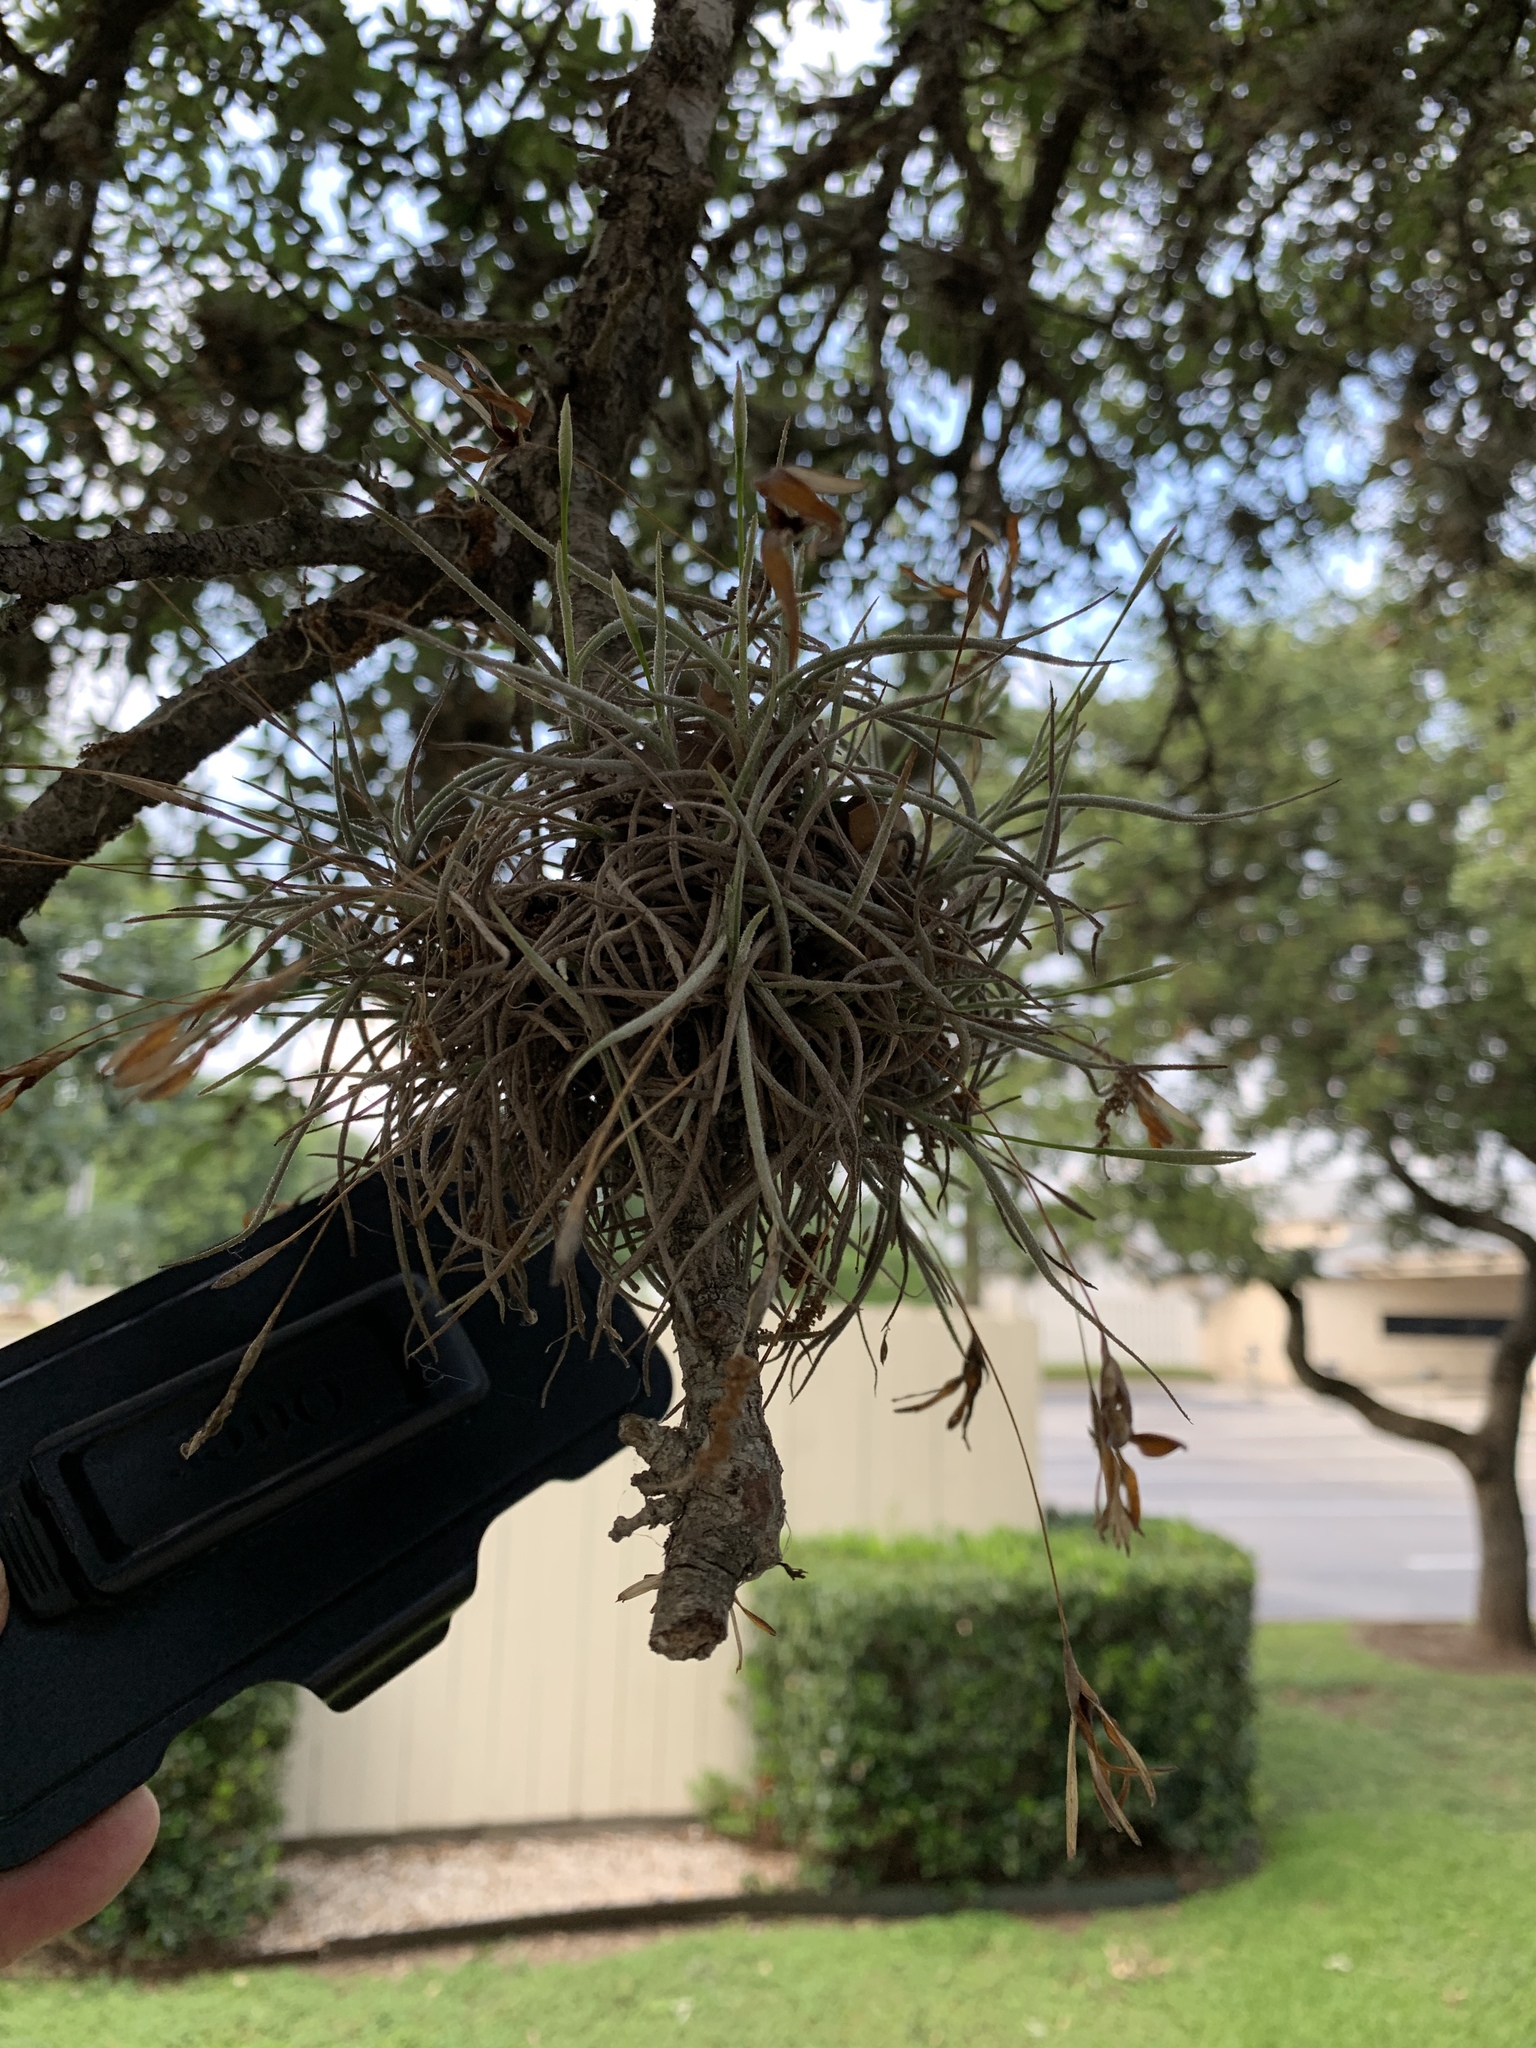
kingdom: Plantae
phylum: Tracheophyta
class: Liliopsida
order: Poales
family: Bromeliaceae
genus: Tillandsia
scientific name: Tillandsia recurvata
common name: Small ballmoss
